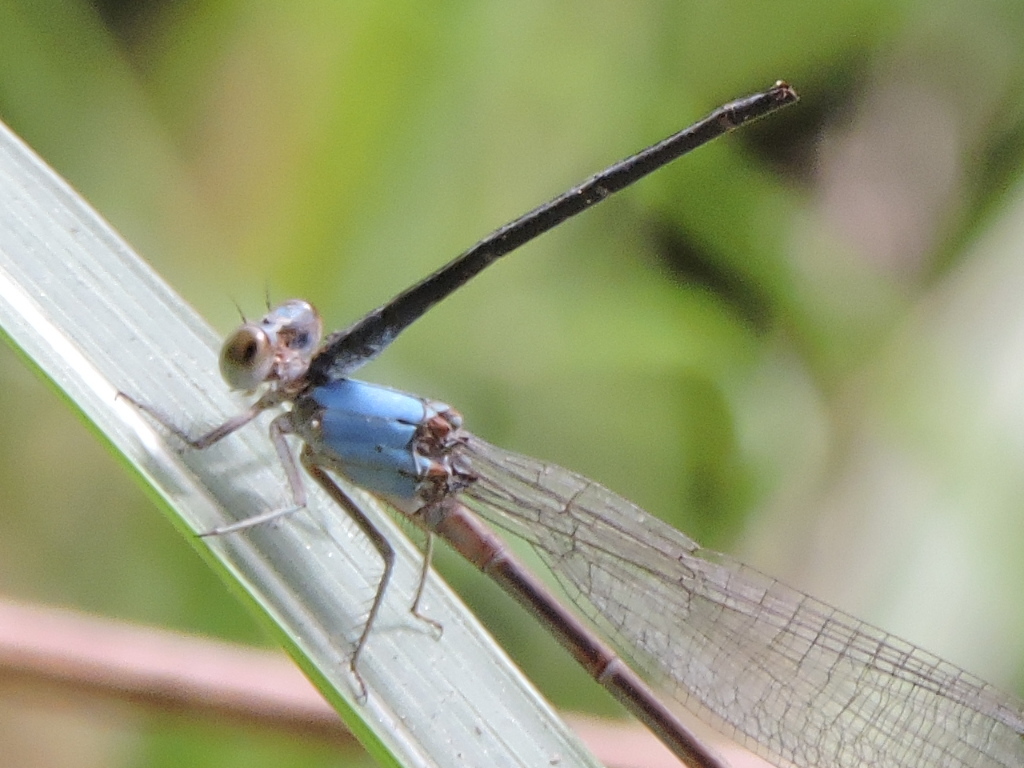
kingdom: Animalia
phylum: Arthropoda
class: Insecta
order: Odonata
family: Coenagrionidae
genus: Argia
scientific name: Argia moesta
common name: Powdered dancer
